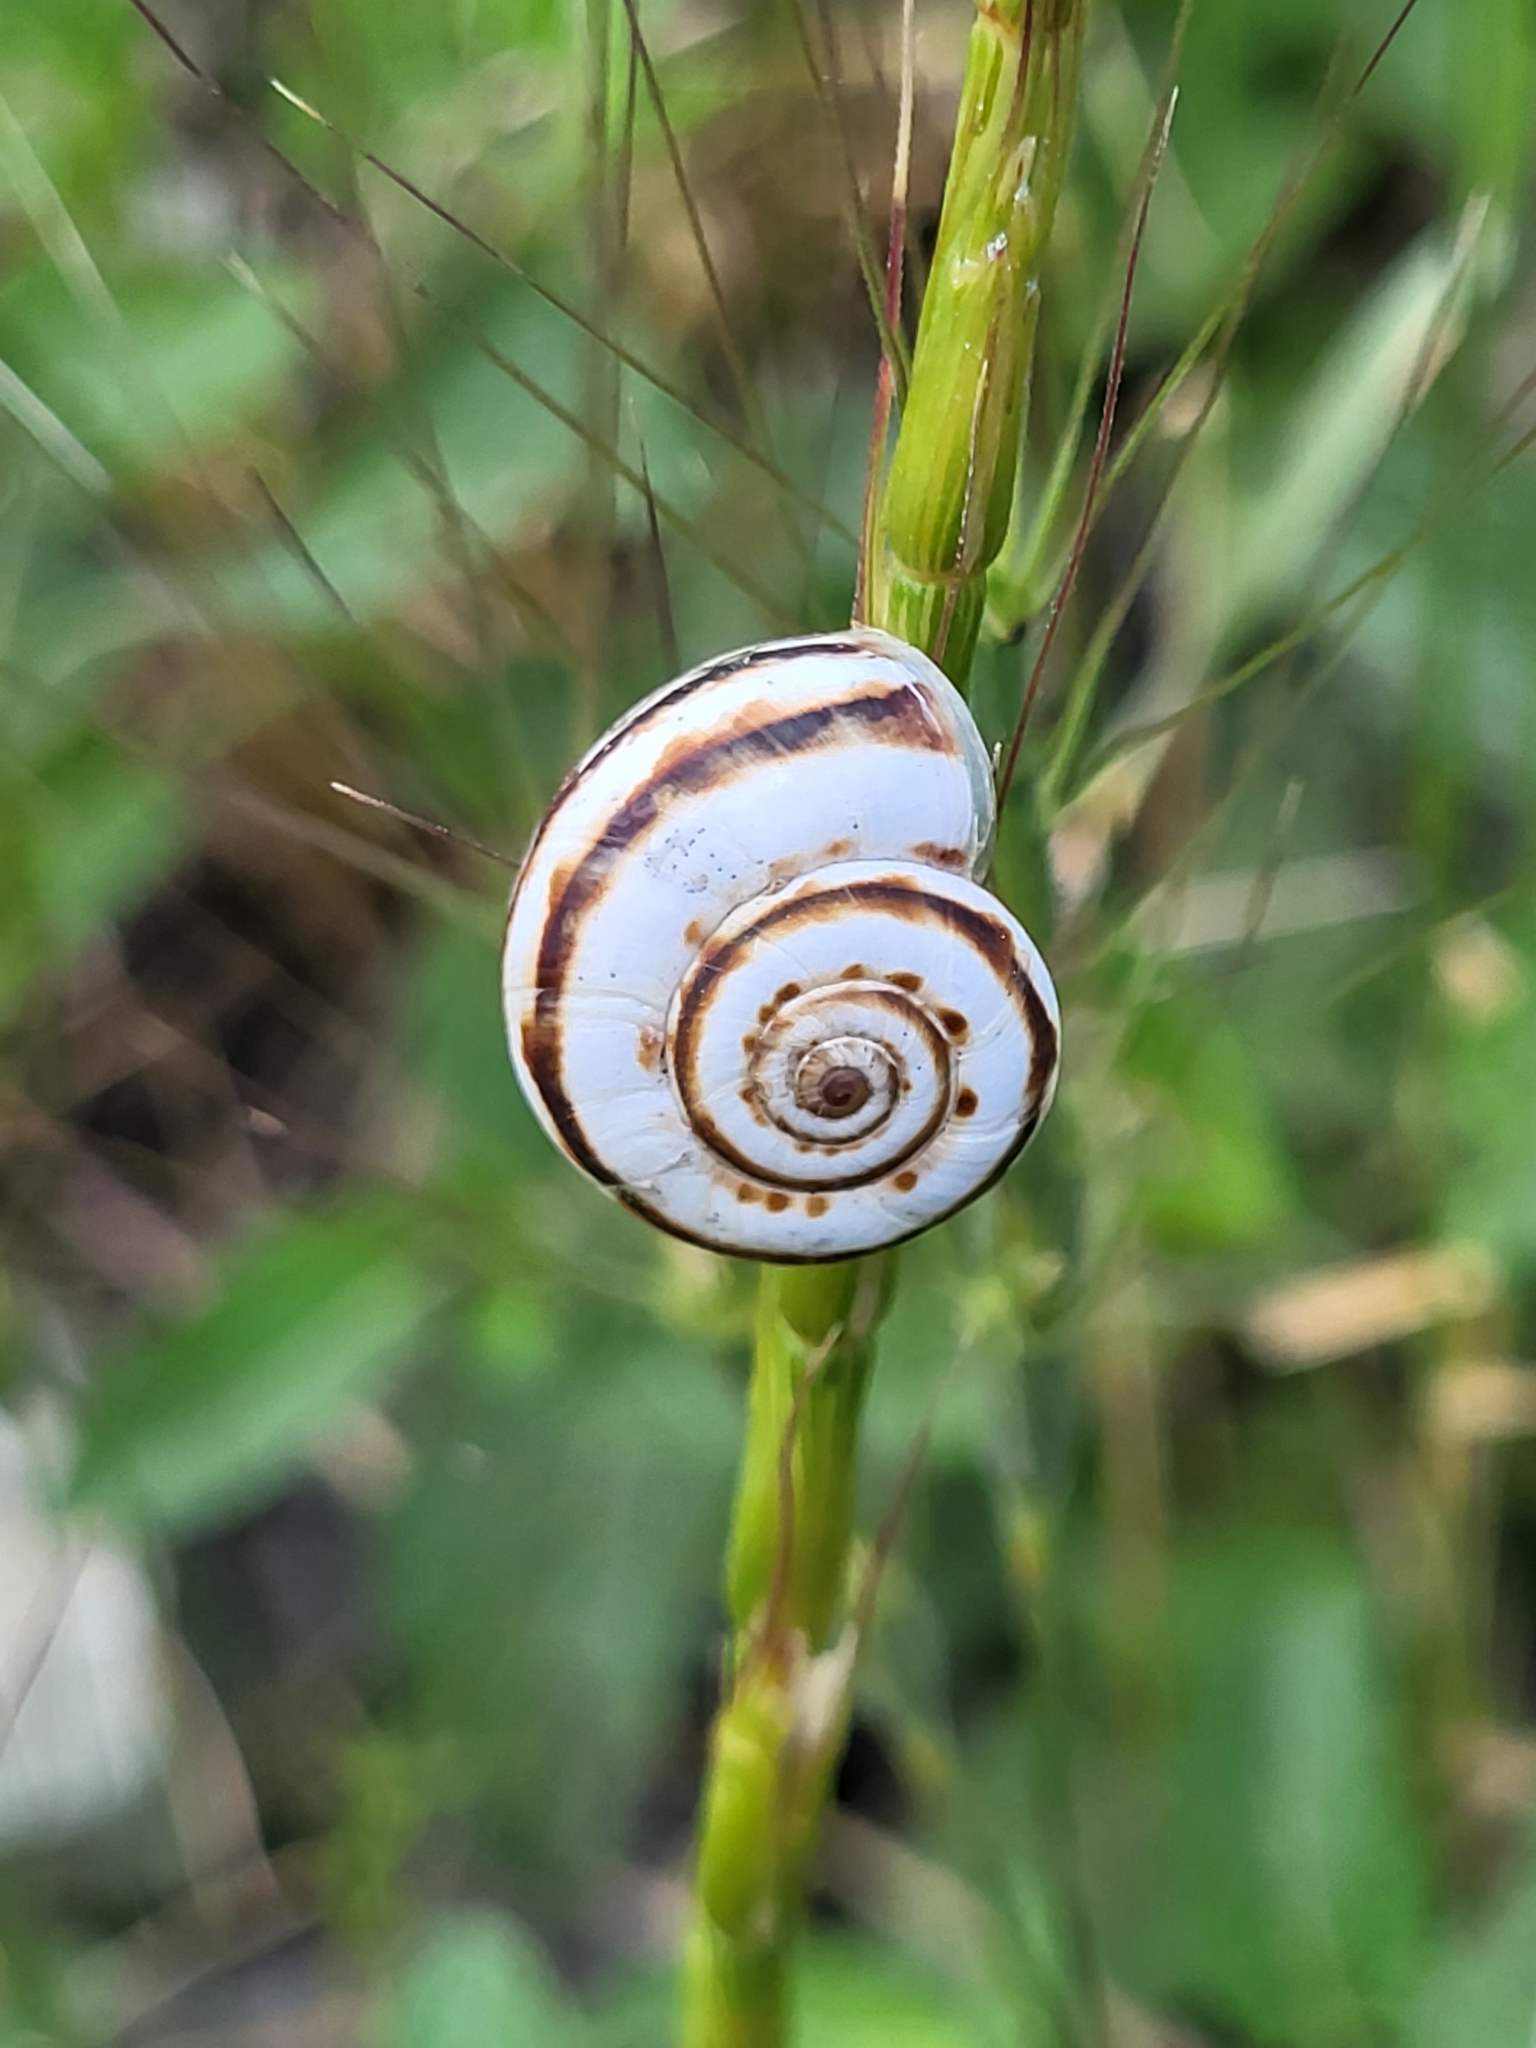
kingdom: Animalia
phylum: Mollusca
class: Gastropoda
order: Stylommatophora
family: Geomitridae
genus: Xeropicta
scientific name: Xeropicta derbentina
